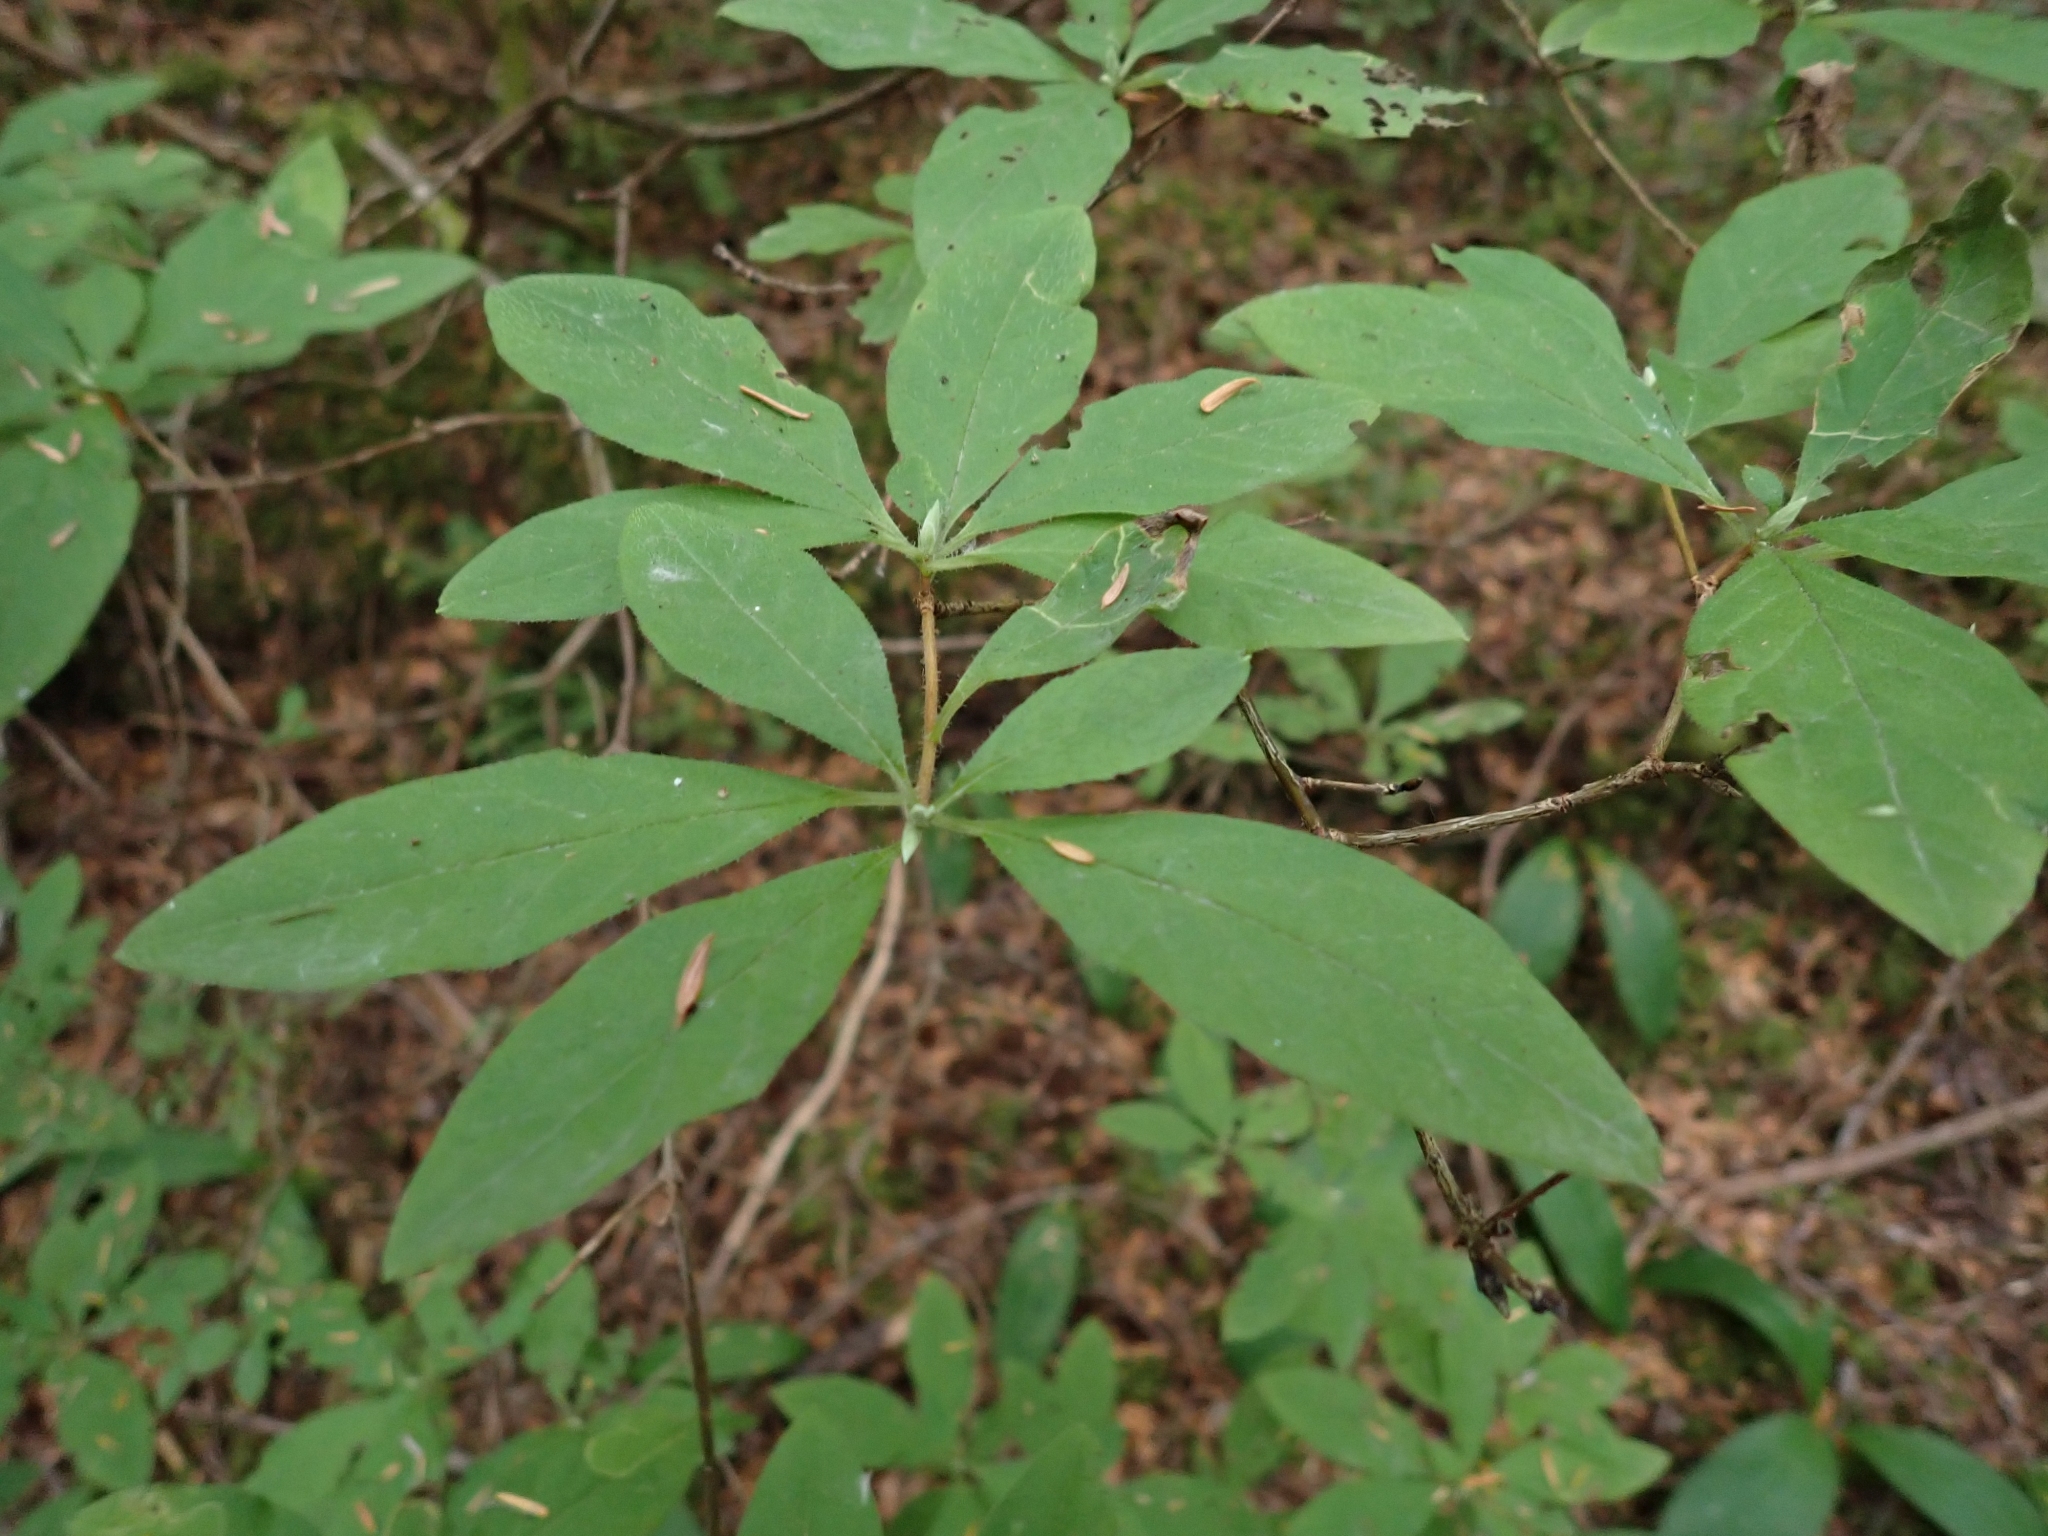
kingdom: Plantae
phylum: Tracheophyta
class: Magnoliopsida
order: Ericales
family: Ericaceae
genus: Rhododendron
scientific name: Rhododendron menziesii
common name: Pacific menziesia
